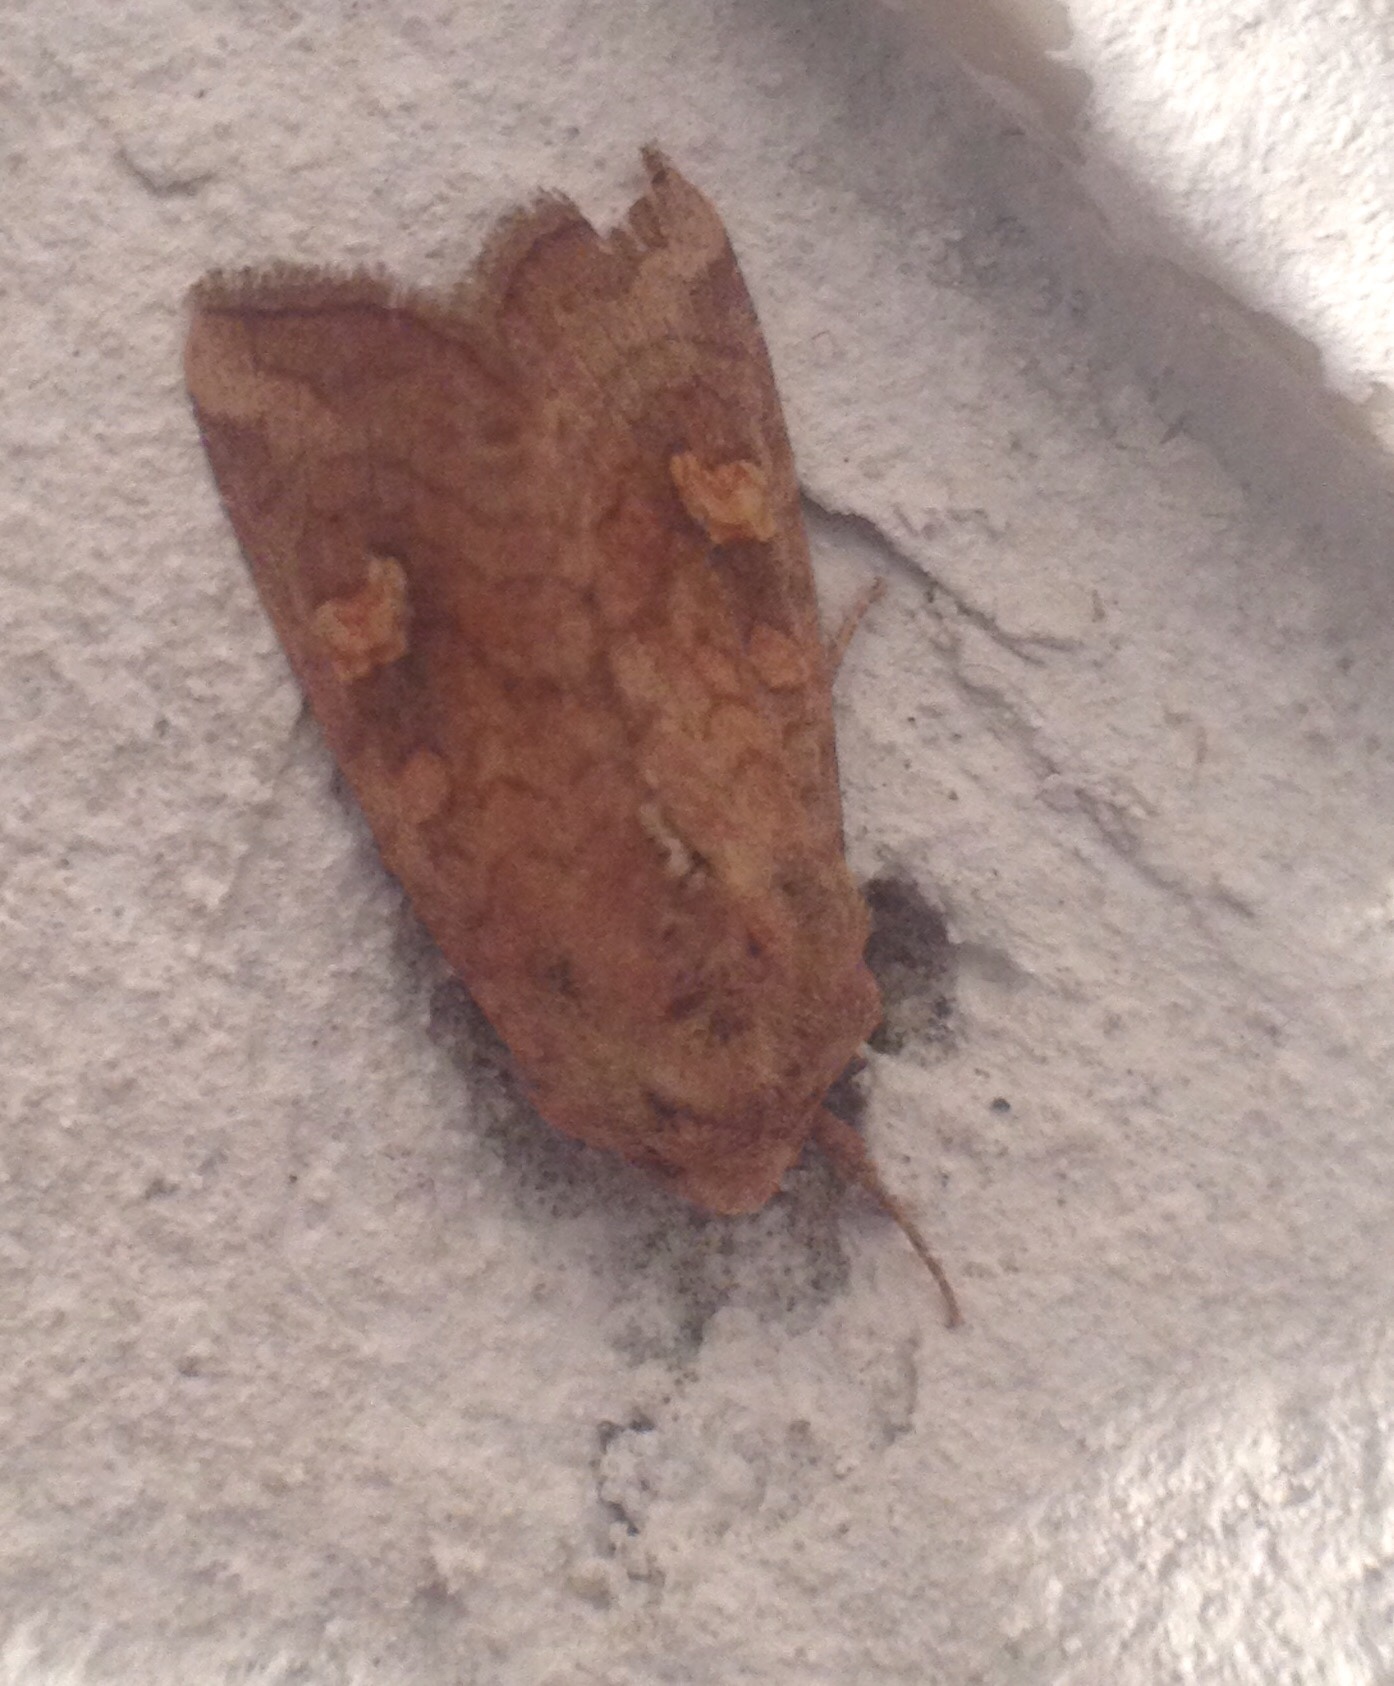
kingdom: Animalia
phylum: Arthropoda
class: Insecta
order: Lepidoptera
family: Noctuidae
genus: Amphipoea
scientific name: Amphipoea fucosa
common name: Saltern ear
